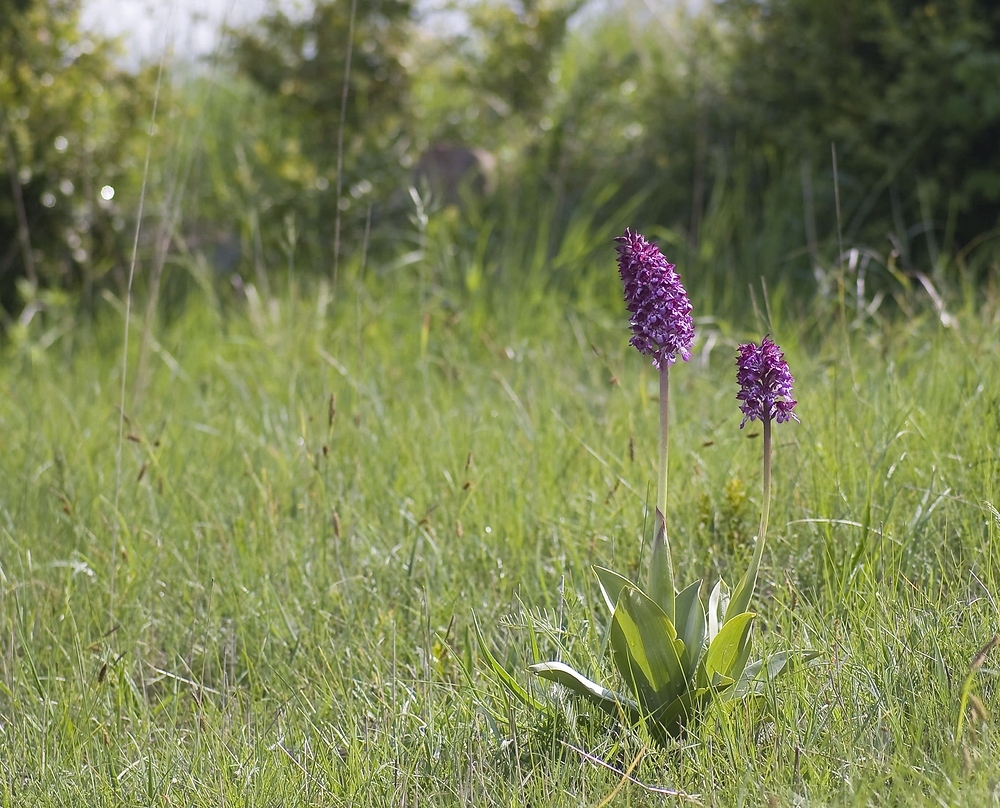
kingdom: Plantae
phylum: Tracheophyta
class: Liliopsida
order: Asparagales
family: Orchidaceae
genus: Orchis
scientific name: Orchis purpurea
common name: Lady orchid
